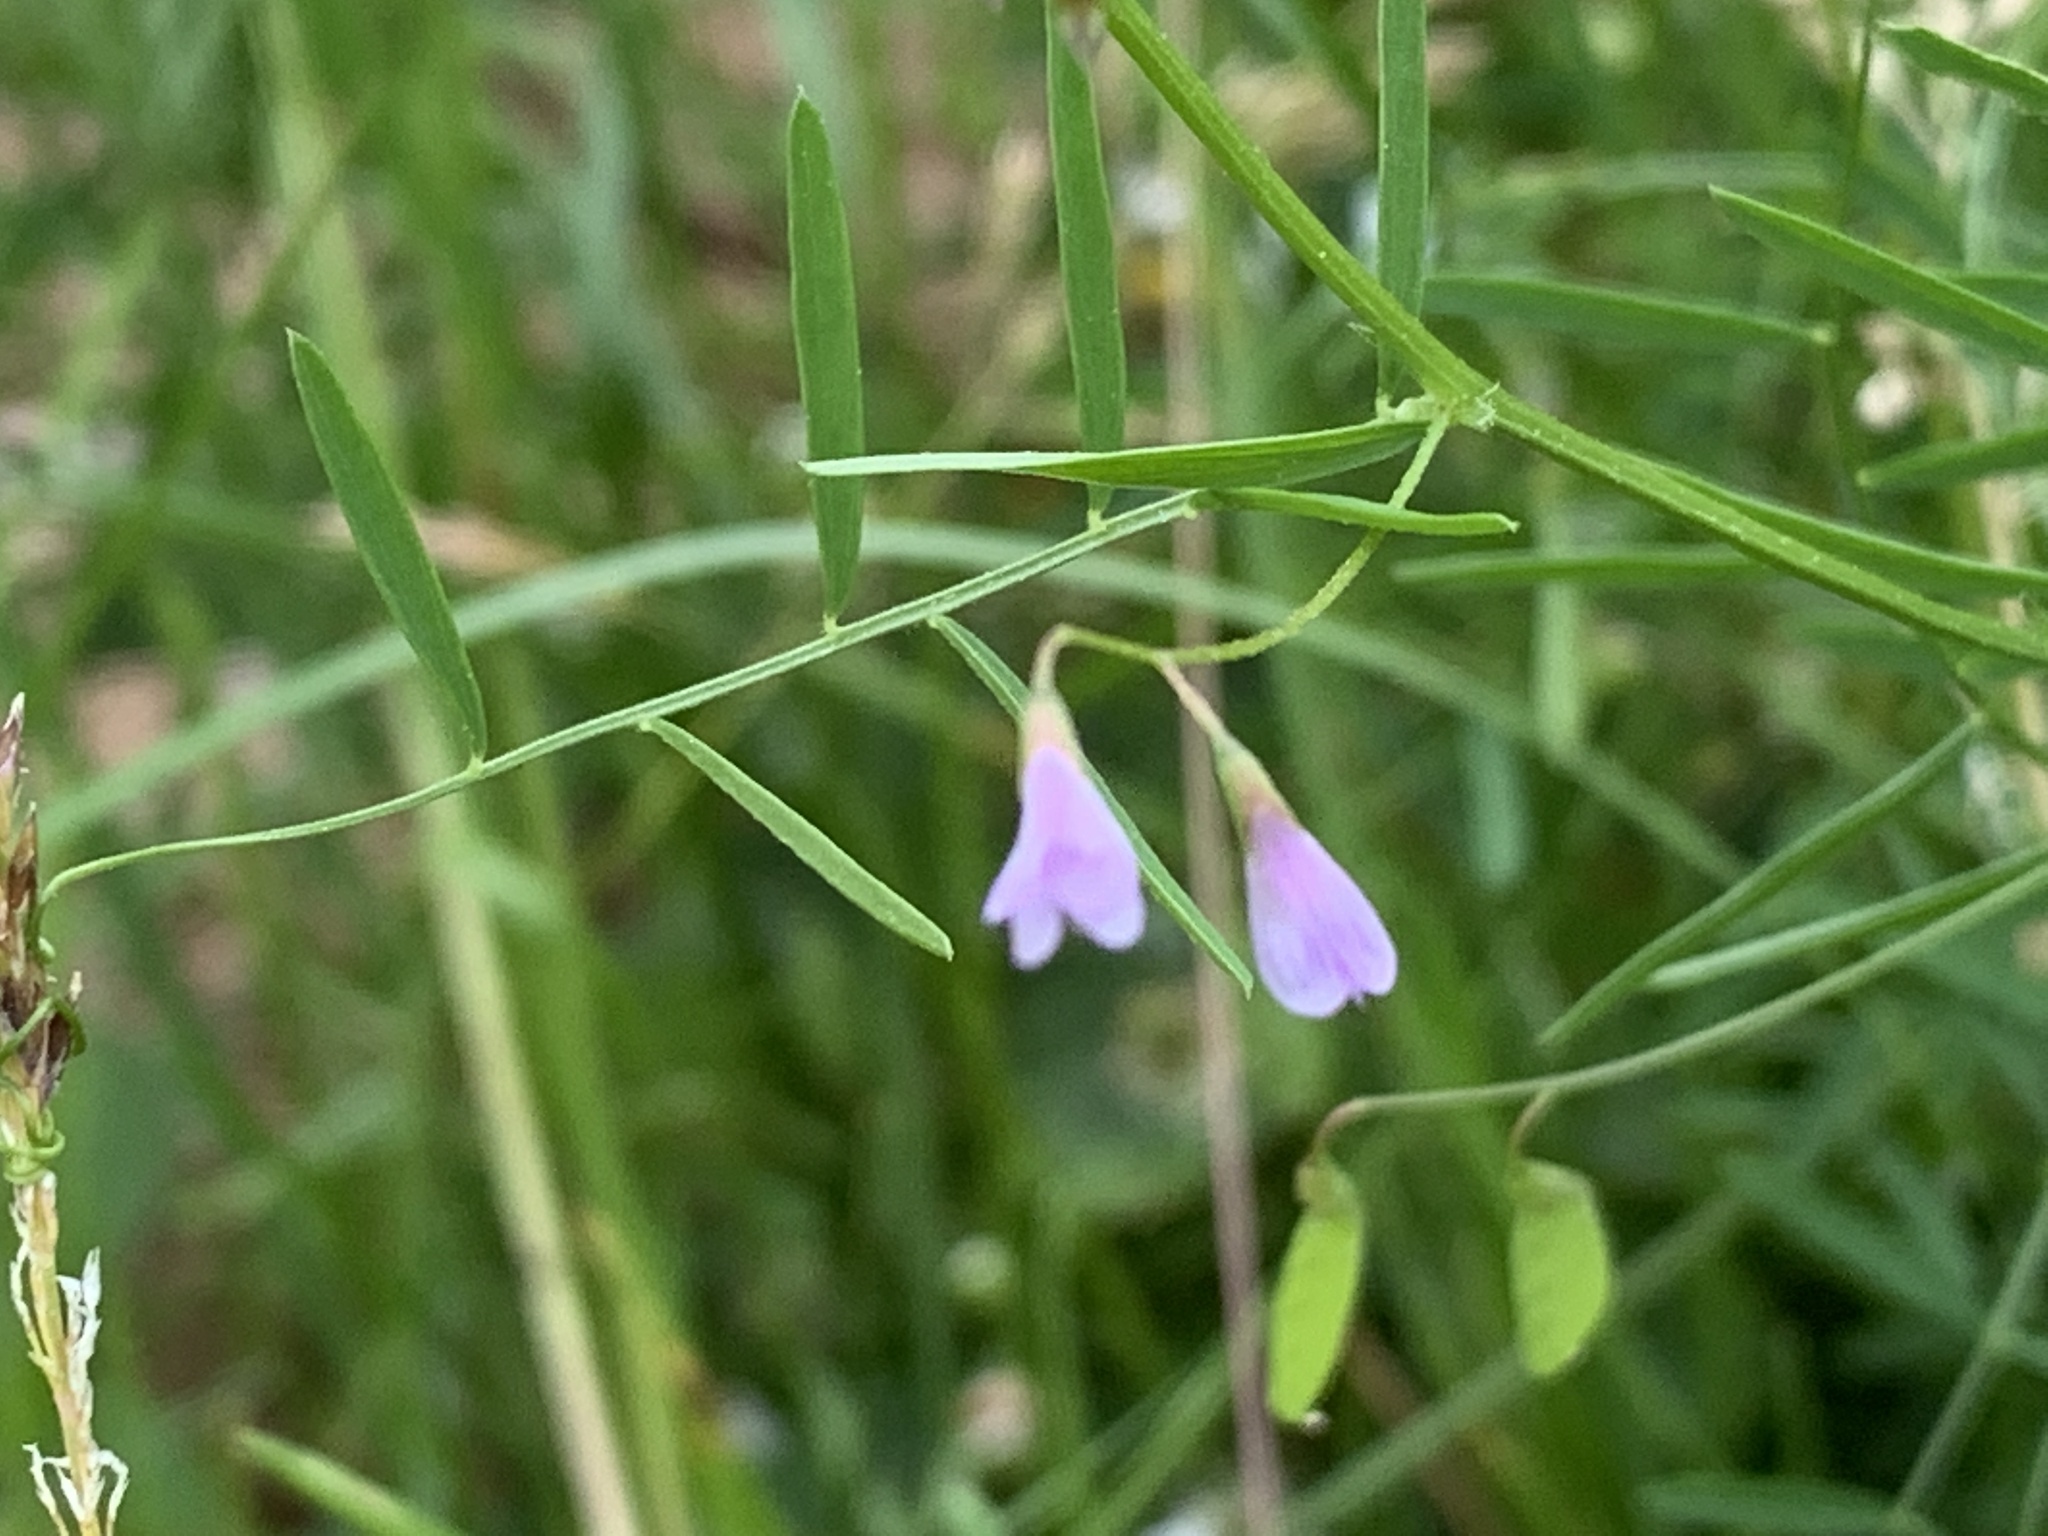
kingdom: Plantae
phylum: Tracheophyta
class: Magnoliopsida
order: Fabales
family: Fabaceae
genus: Vicia
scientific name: Vicia tetrasperma
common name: Smooth tare
